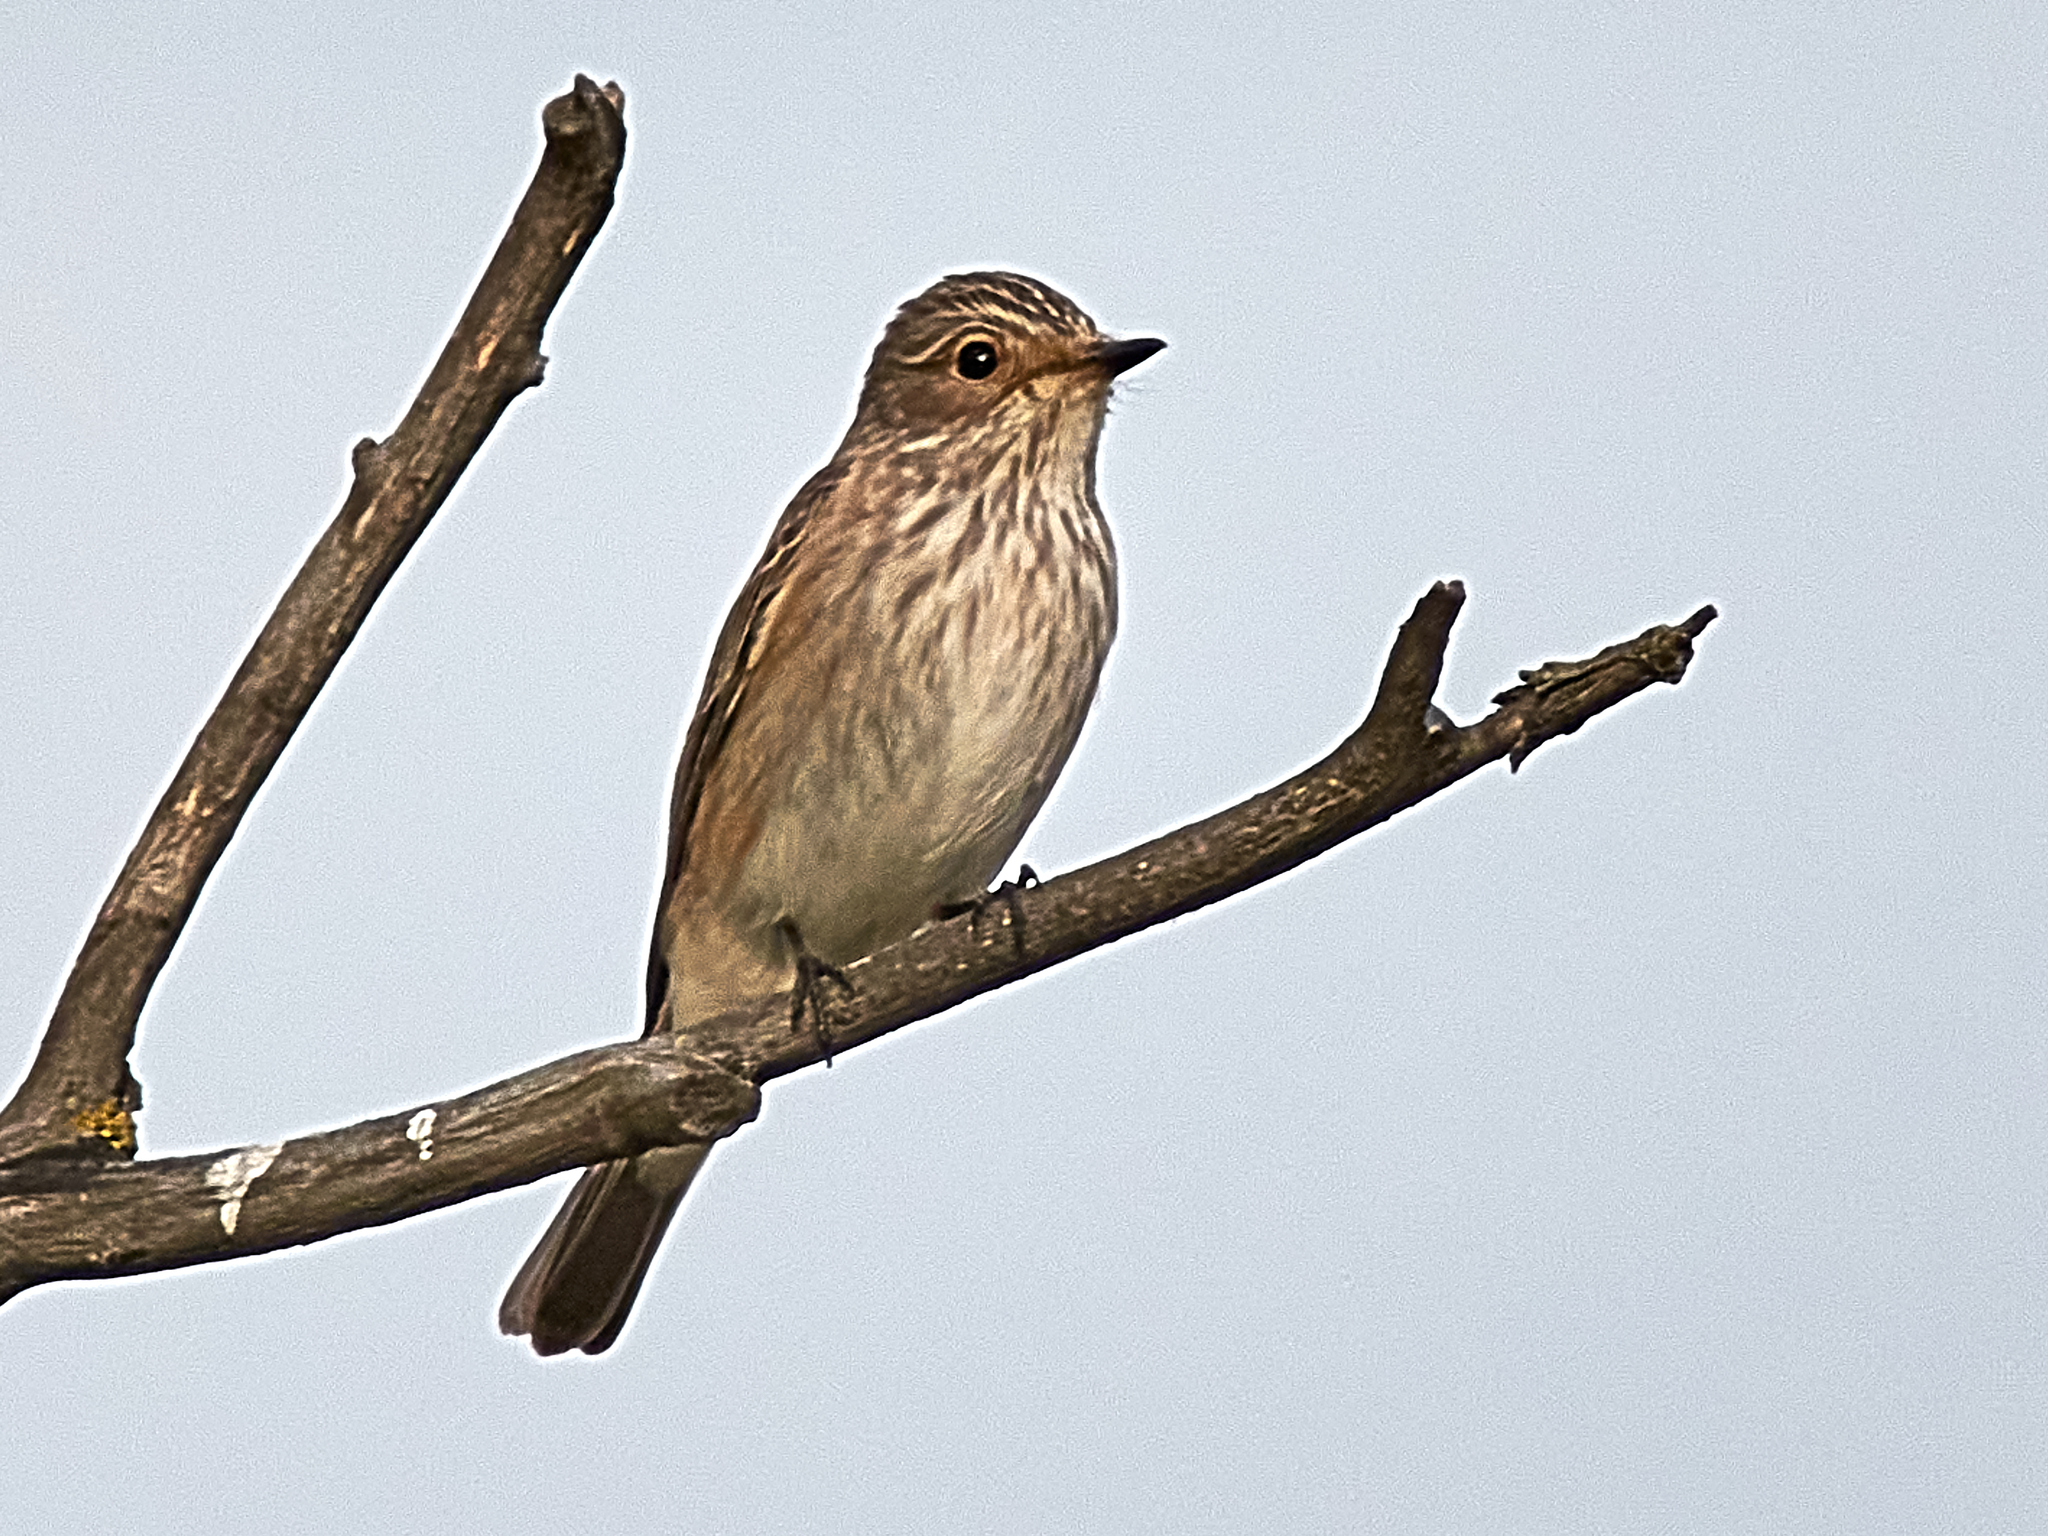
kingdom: Animalia
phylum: Chordata
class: Aves
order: Passeriformes
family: Muscicapidae
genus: Muscicapa
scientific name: Muscicapa striata
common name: Spotted flycatcher
